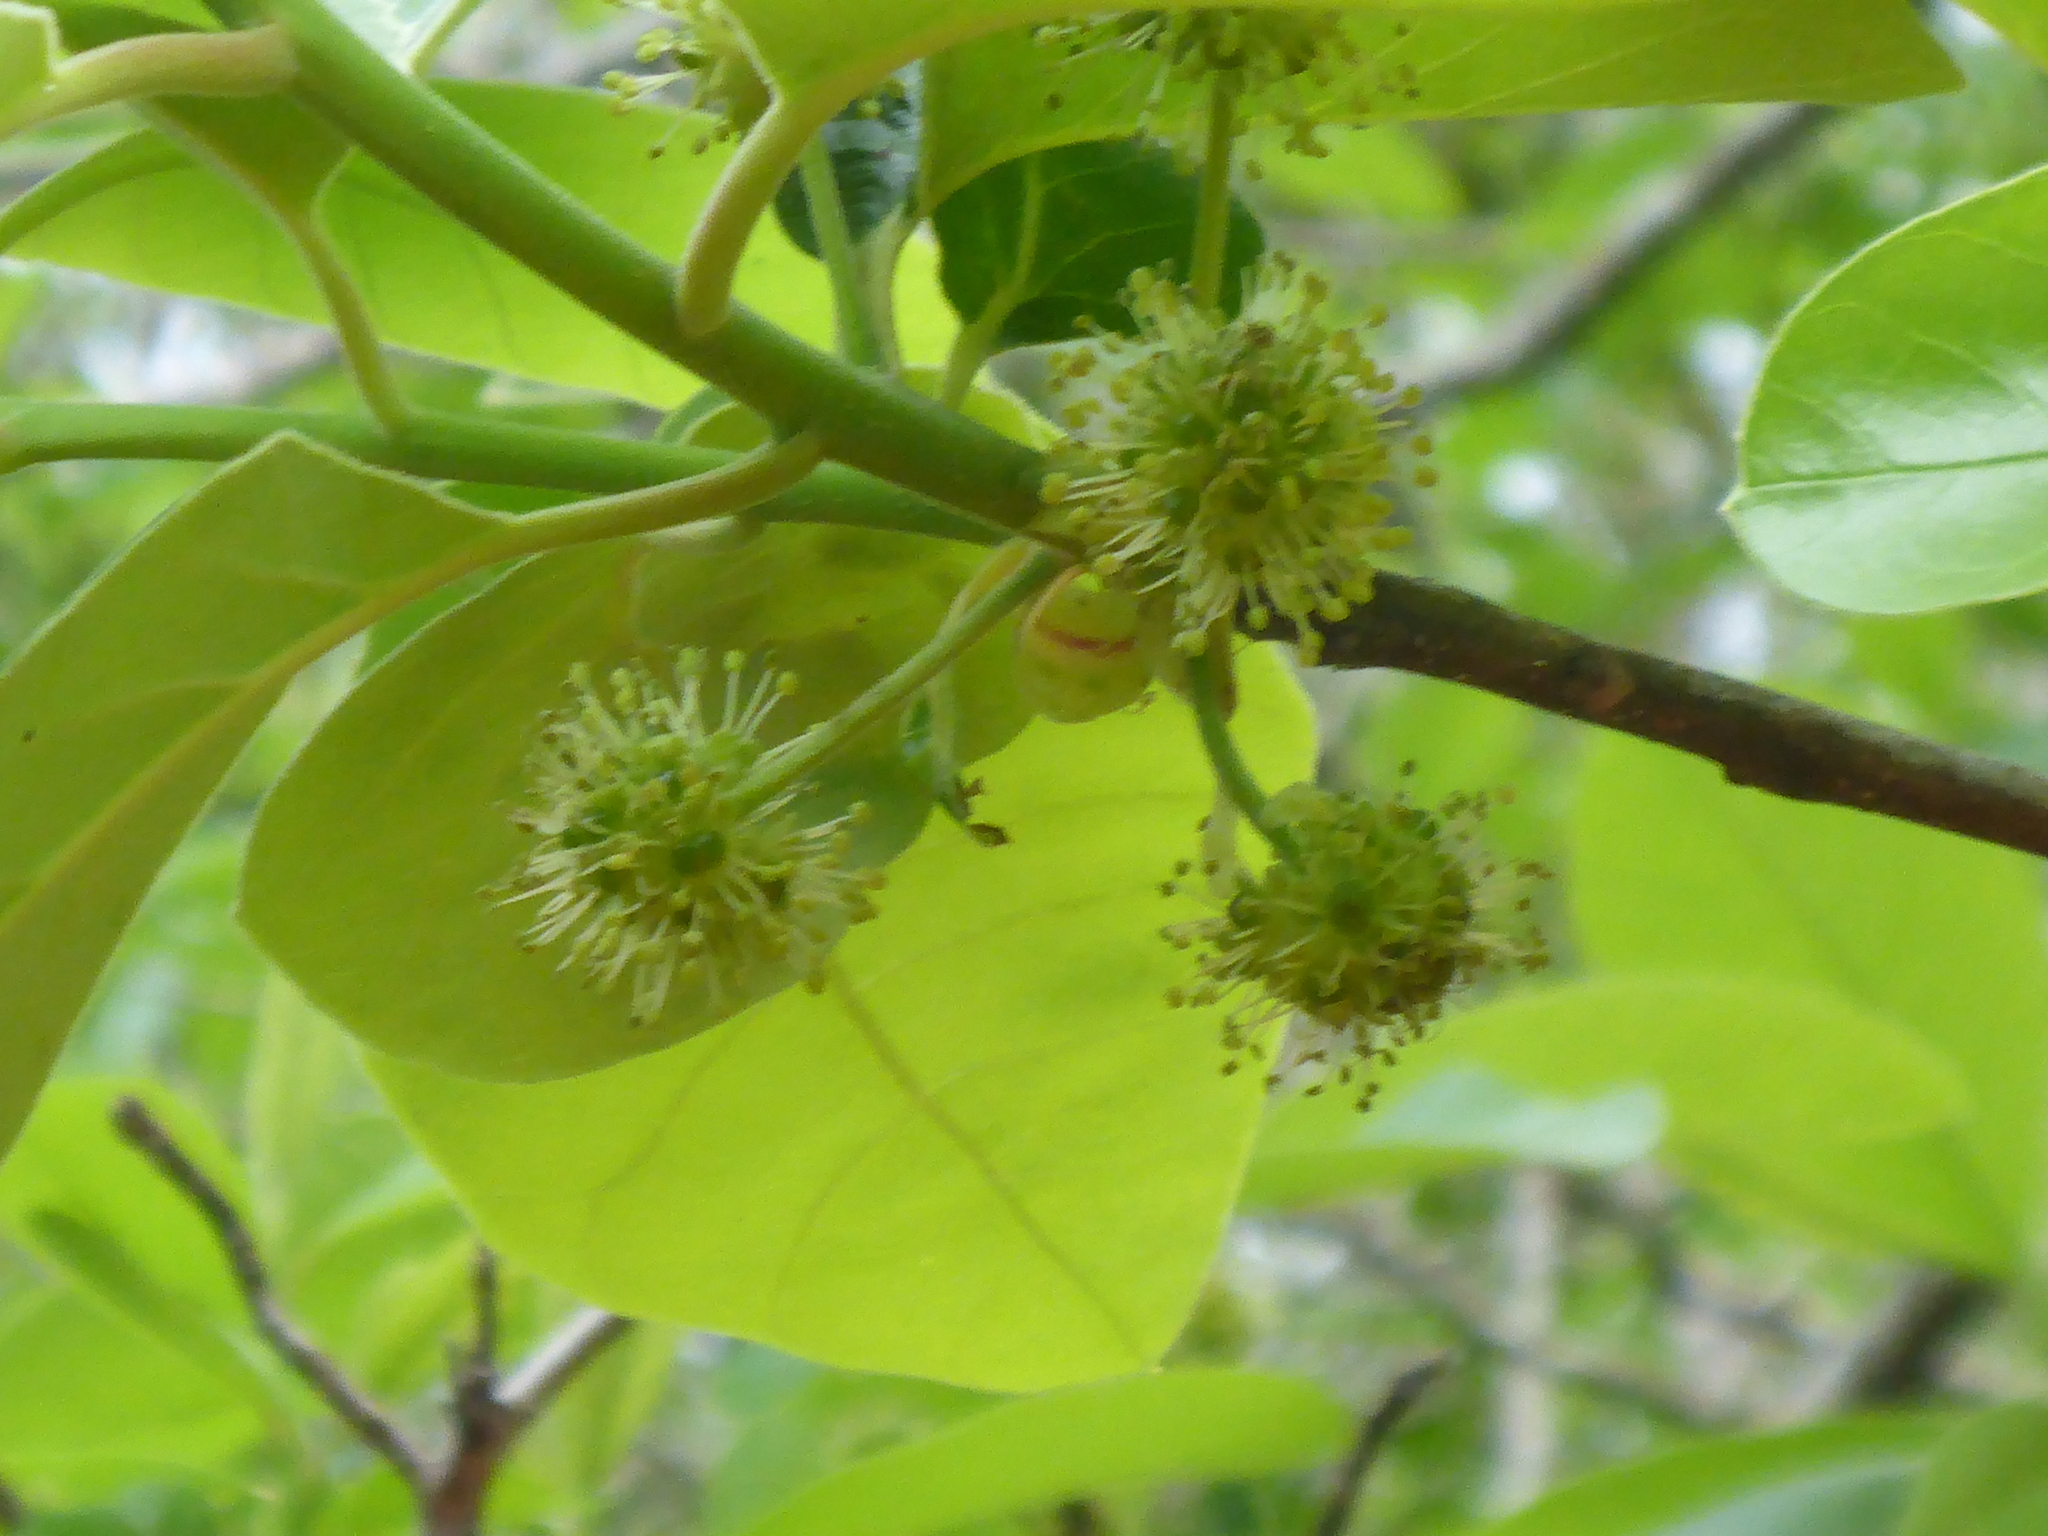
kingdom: Plantae
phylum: Tracheophyta
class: Magnoliopsida
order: Cornales
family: Nyssaceae
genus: Nyssa
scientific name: Nyssa ogeche
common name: Ogeechee tupelo
